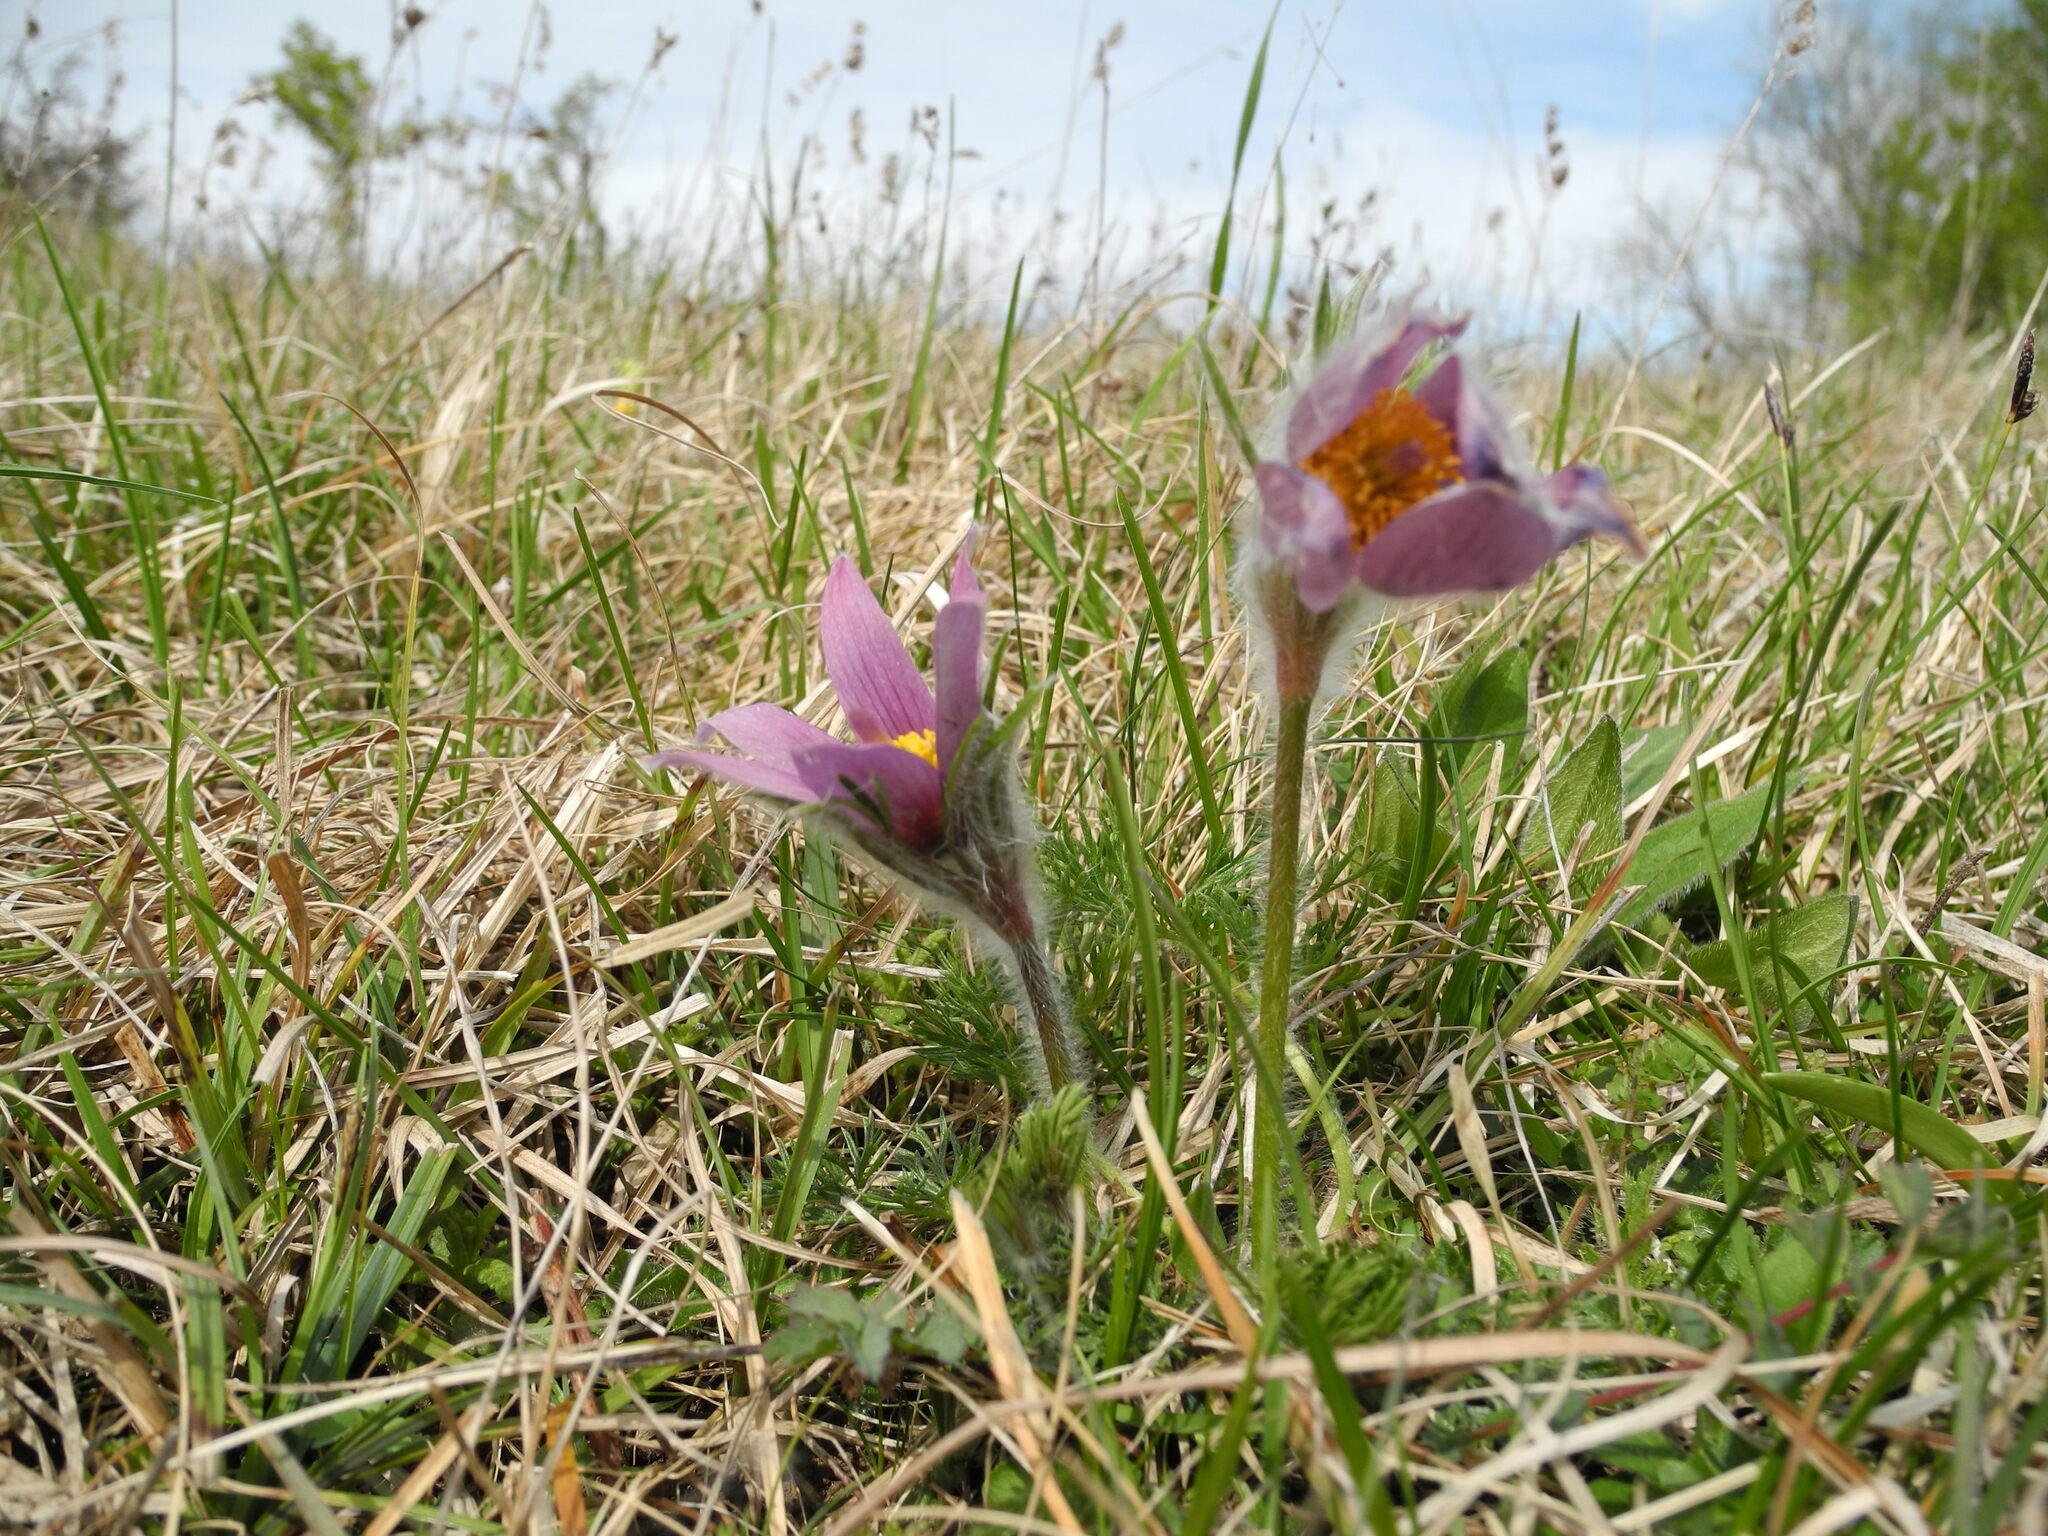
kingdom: Plantae
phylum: Tracheophyta
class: Magnoliopsida
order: Ranunculales
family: Ranunculaceae
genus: Pulsatilla
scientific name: Pulsatilla vulgaris
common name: Pasqueflower
